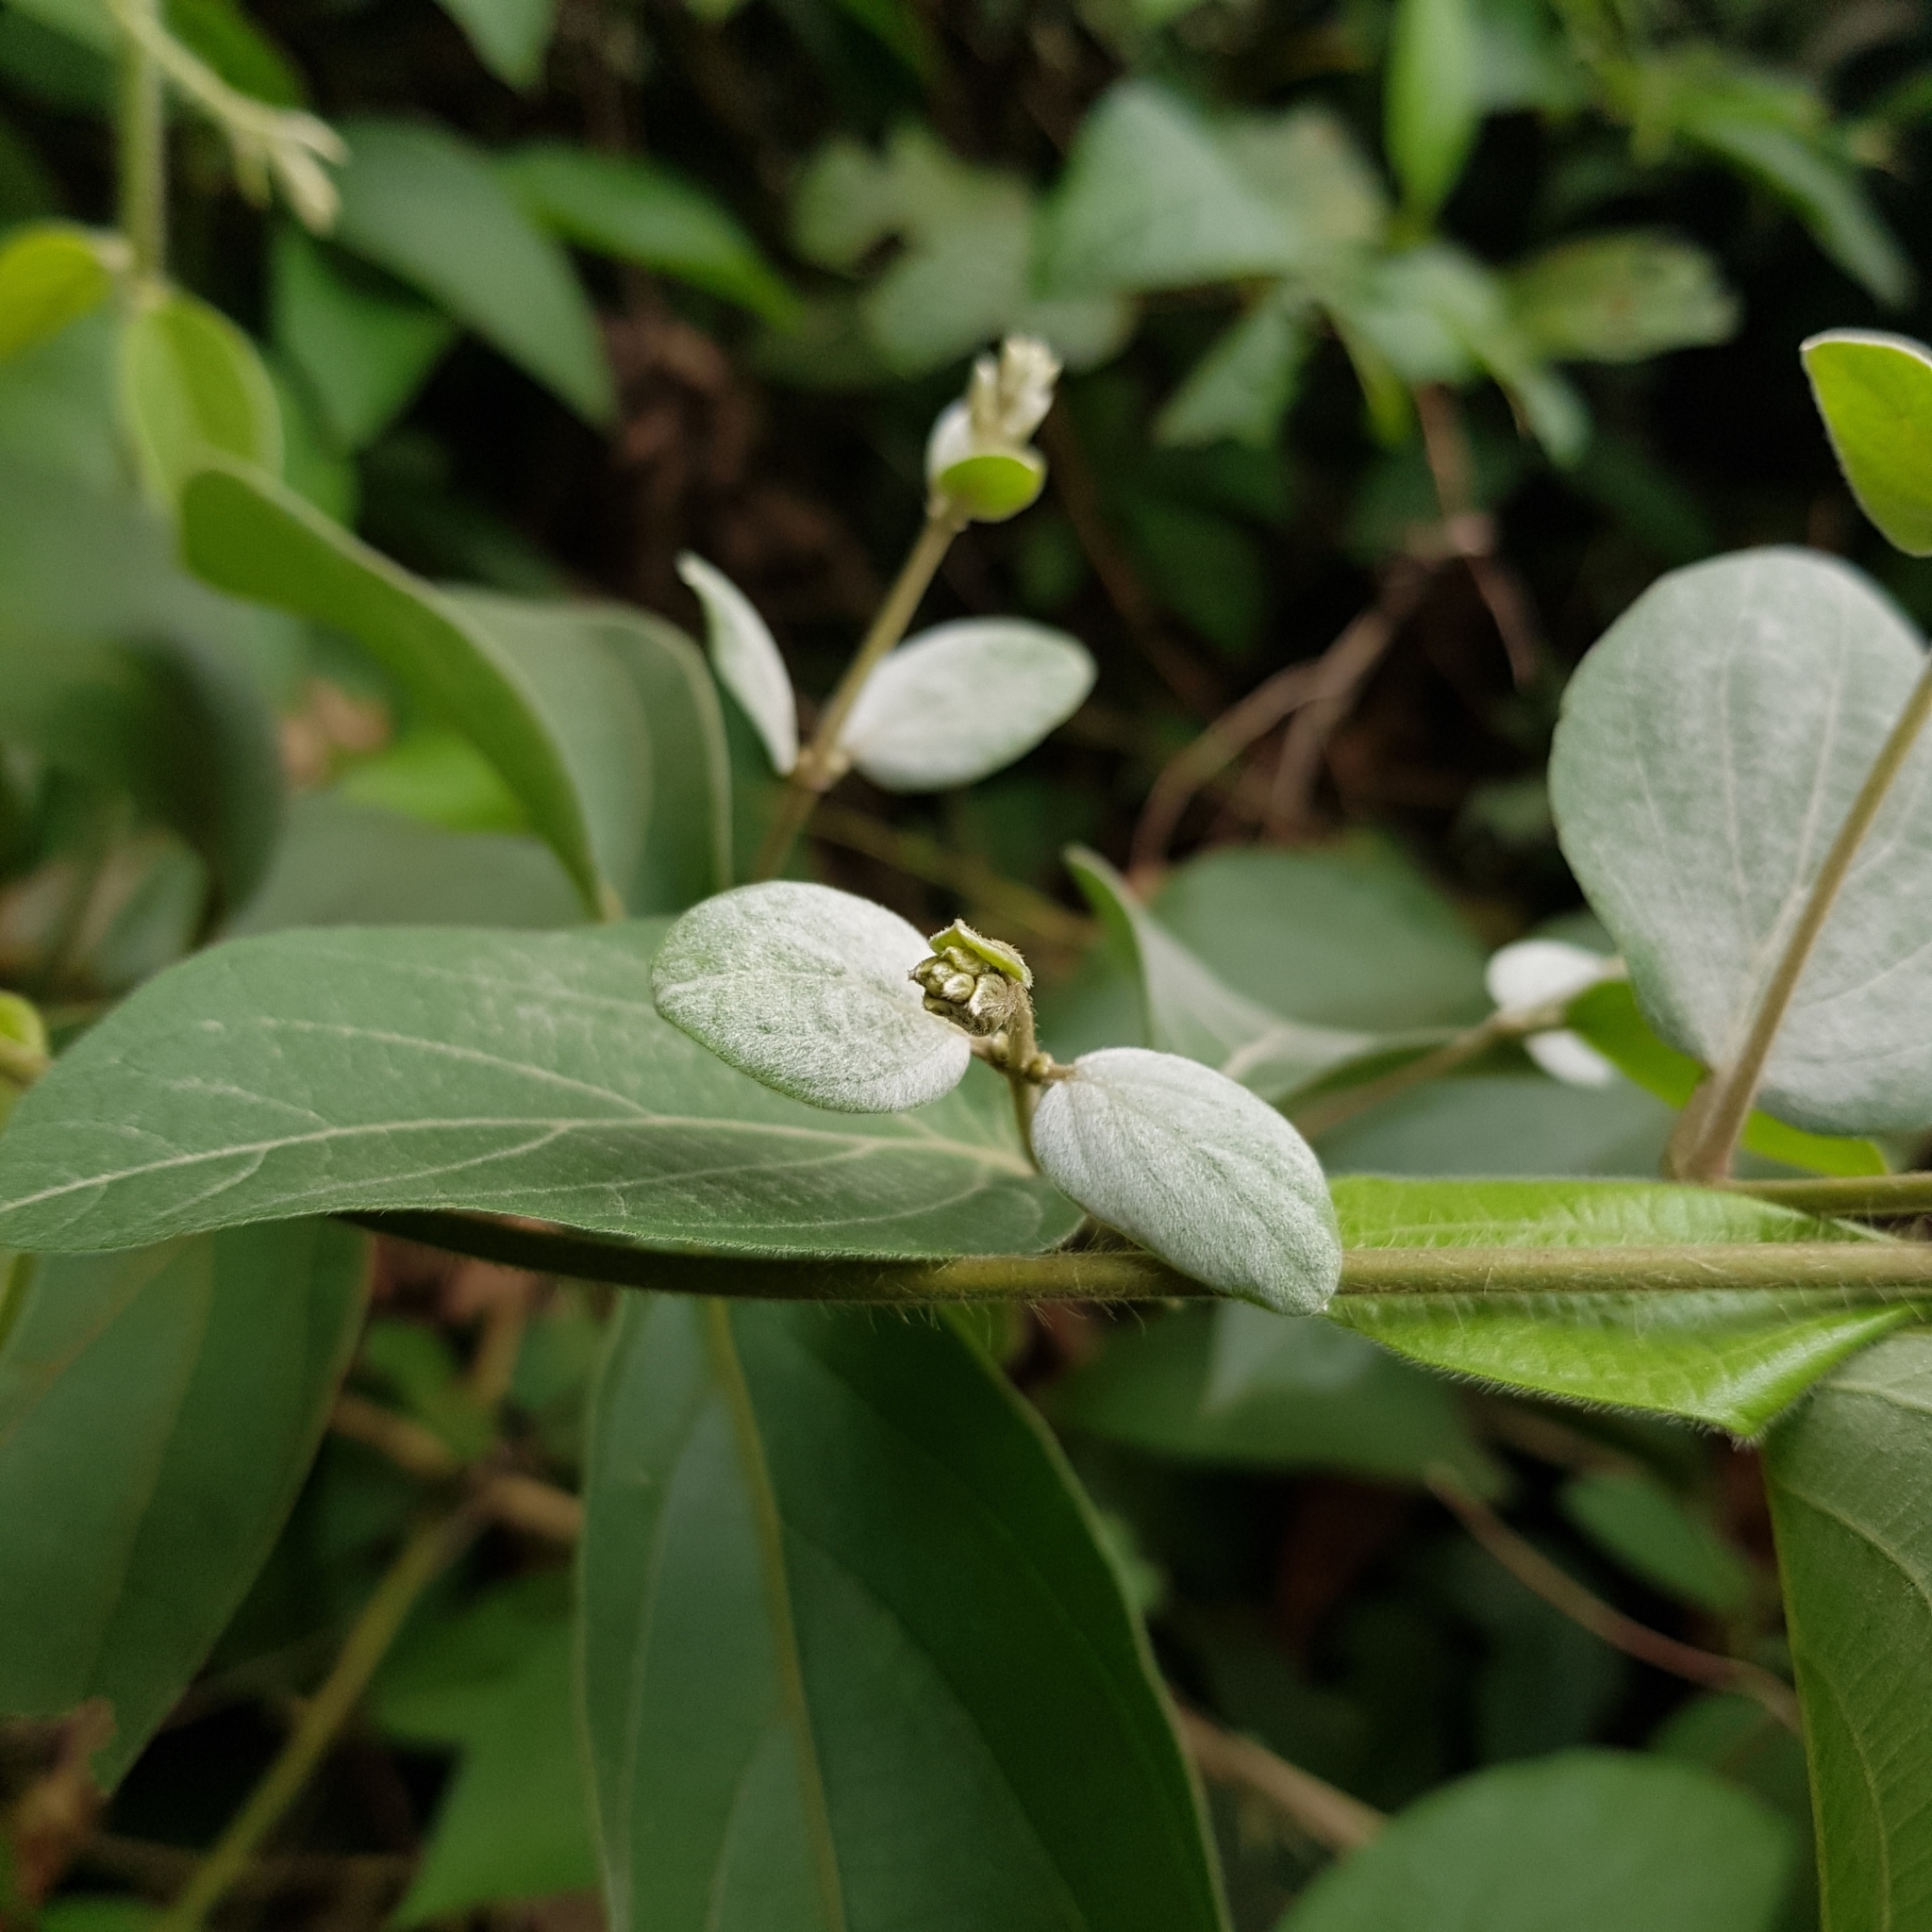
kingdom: Plantae
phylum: Tracheophyta
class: Magnoliopsida
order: Lamiales
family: Lamiaceae
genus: Congea
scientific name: Congea tomentosa
